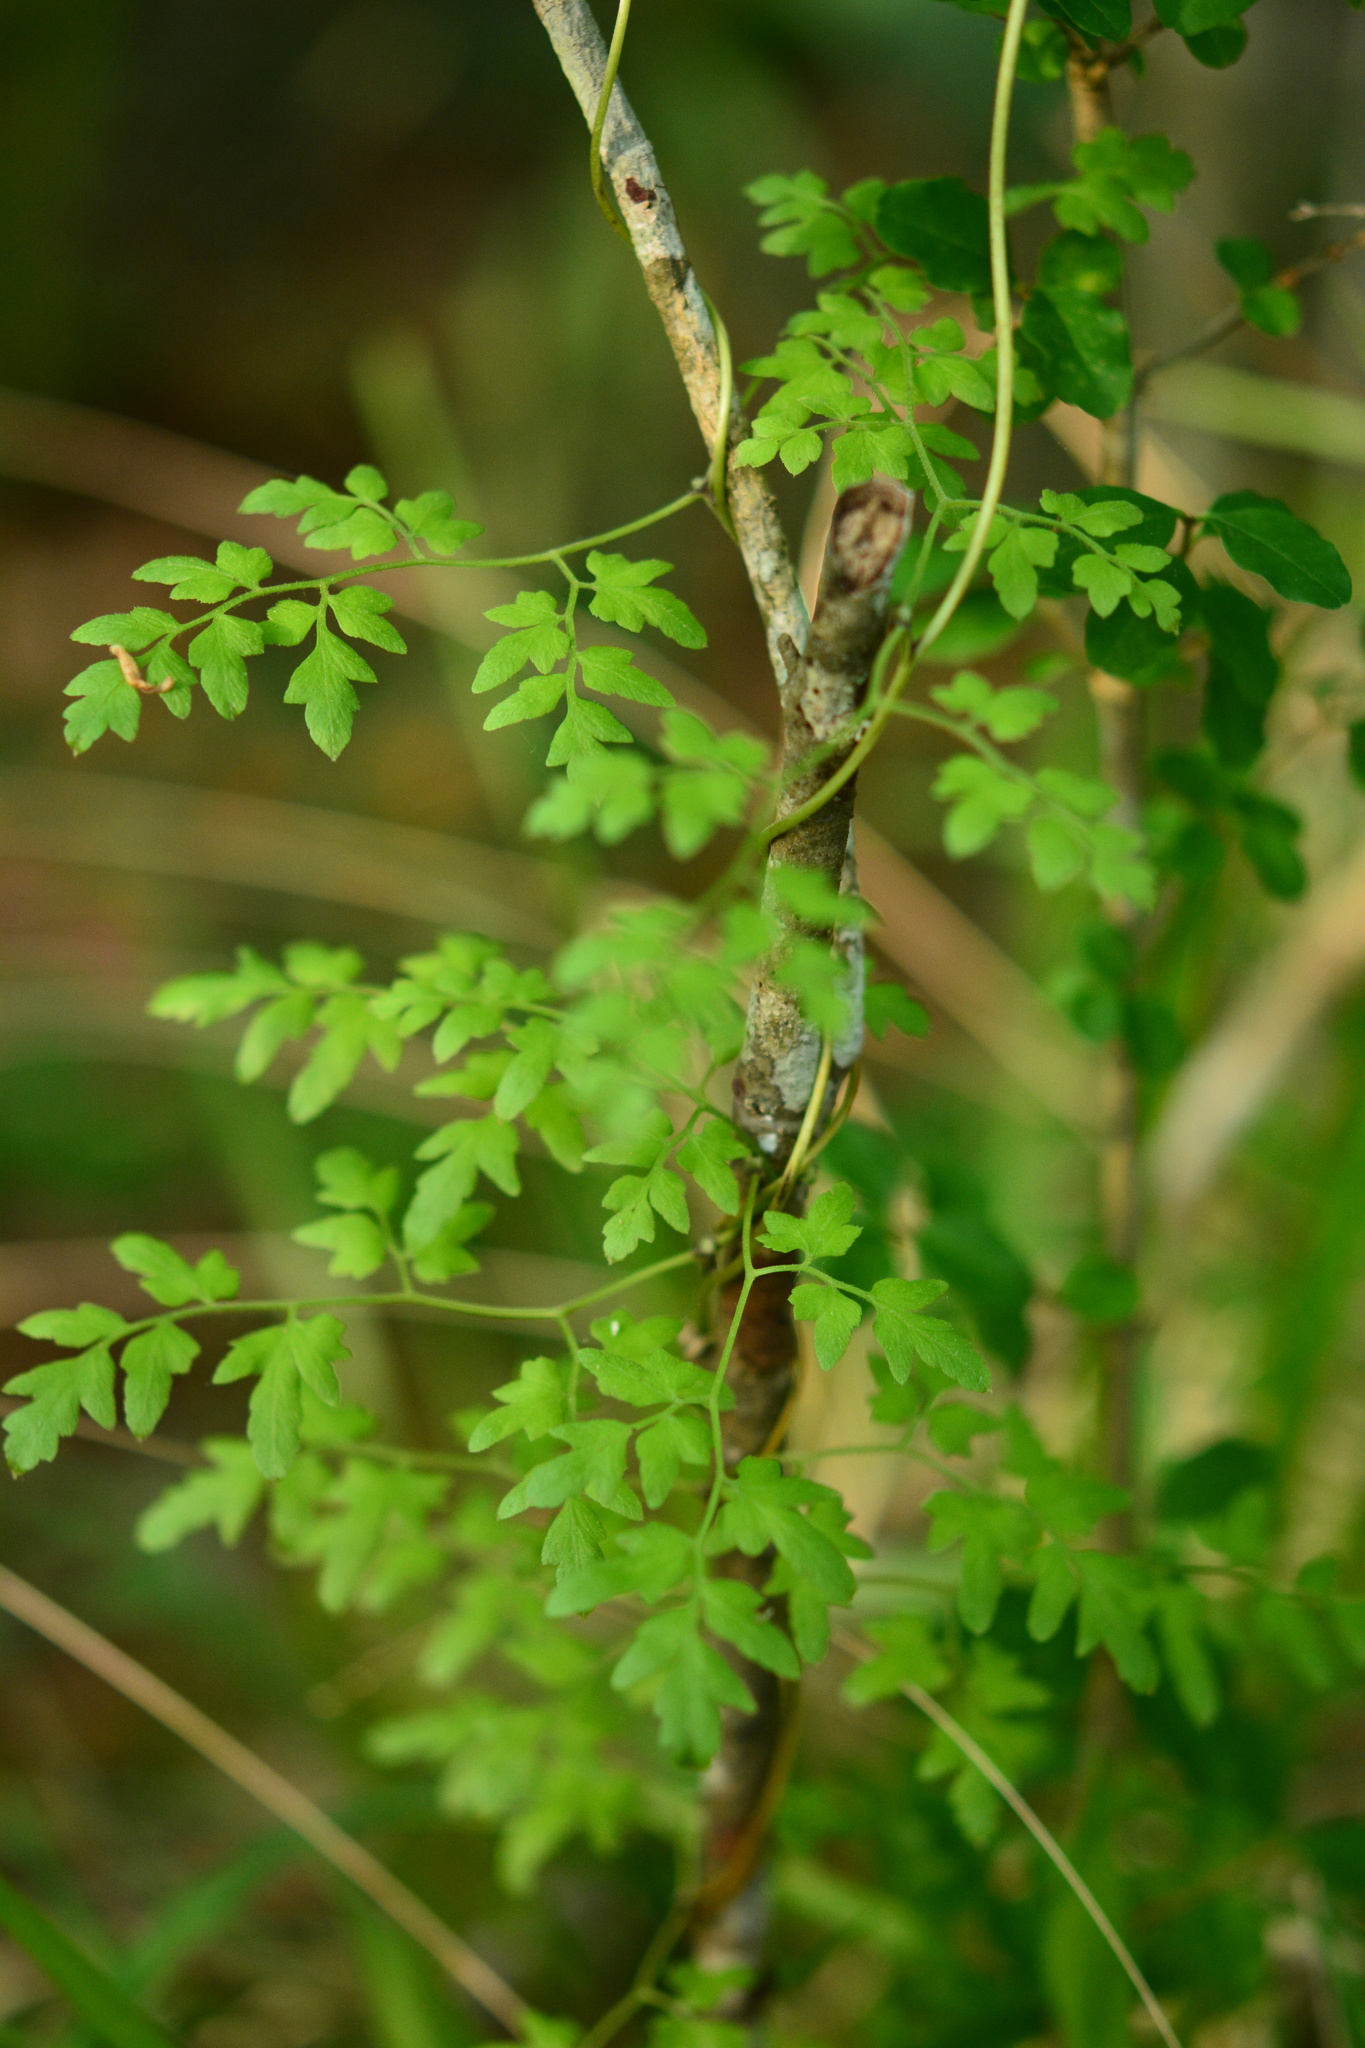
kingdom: Plantae
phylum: Tracheophyta
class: Polypodiopsida
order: Schizaeales
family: Lygodiaceae
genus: Lygodium
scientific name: Lygodium japonicum
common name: Japanese climbing fern
